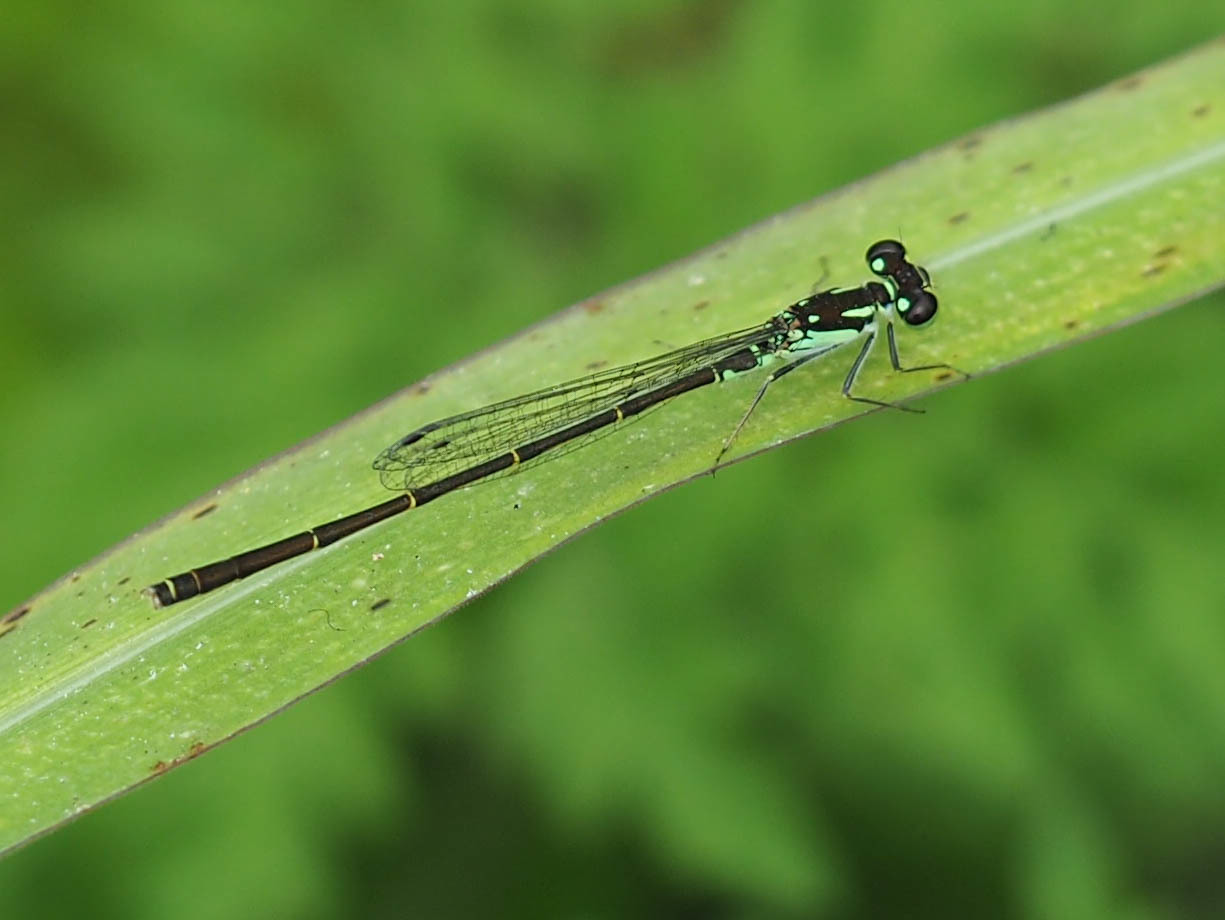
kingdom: Animalia
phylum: Arthropoda
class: Insecta
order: Odonata
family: Coenagrionidae
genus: Ischnura
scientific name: Ischnura posita
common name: Fragile forktail
